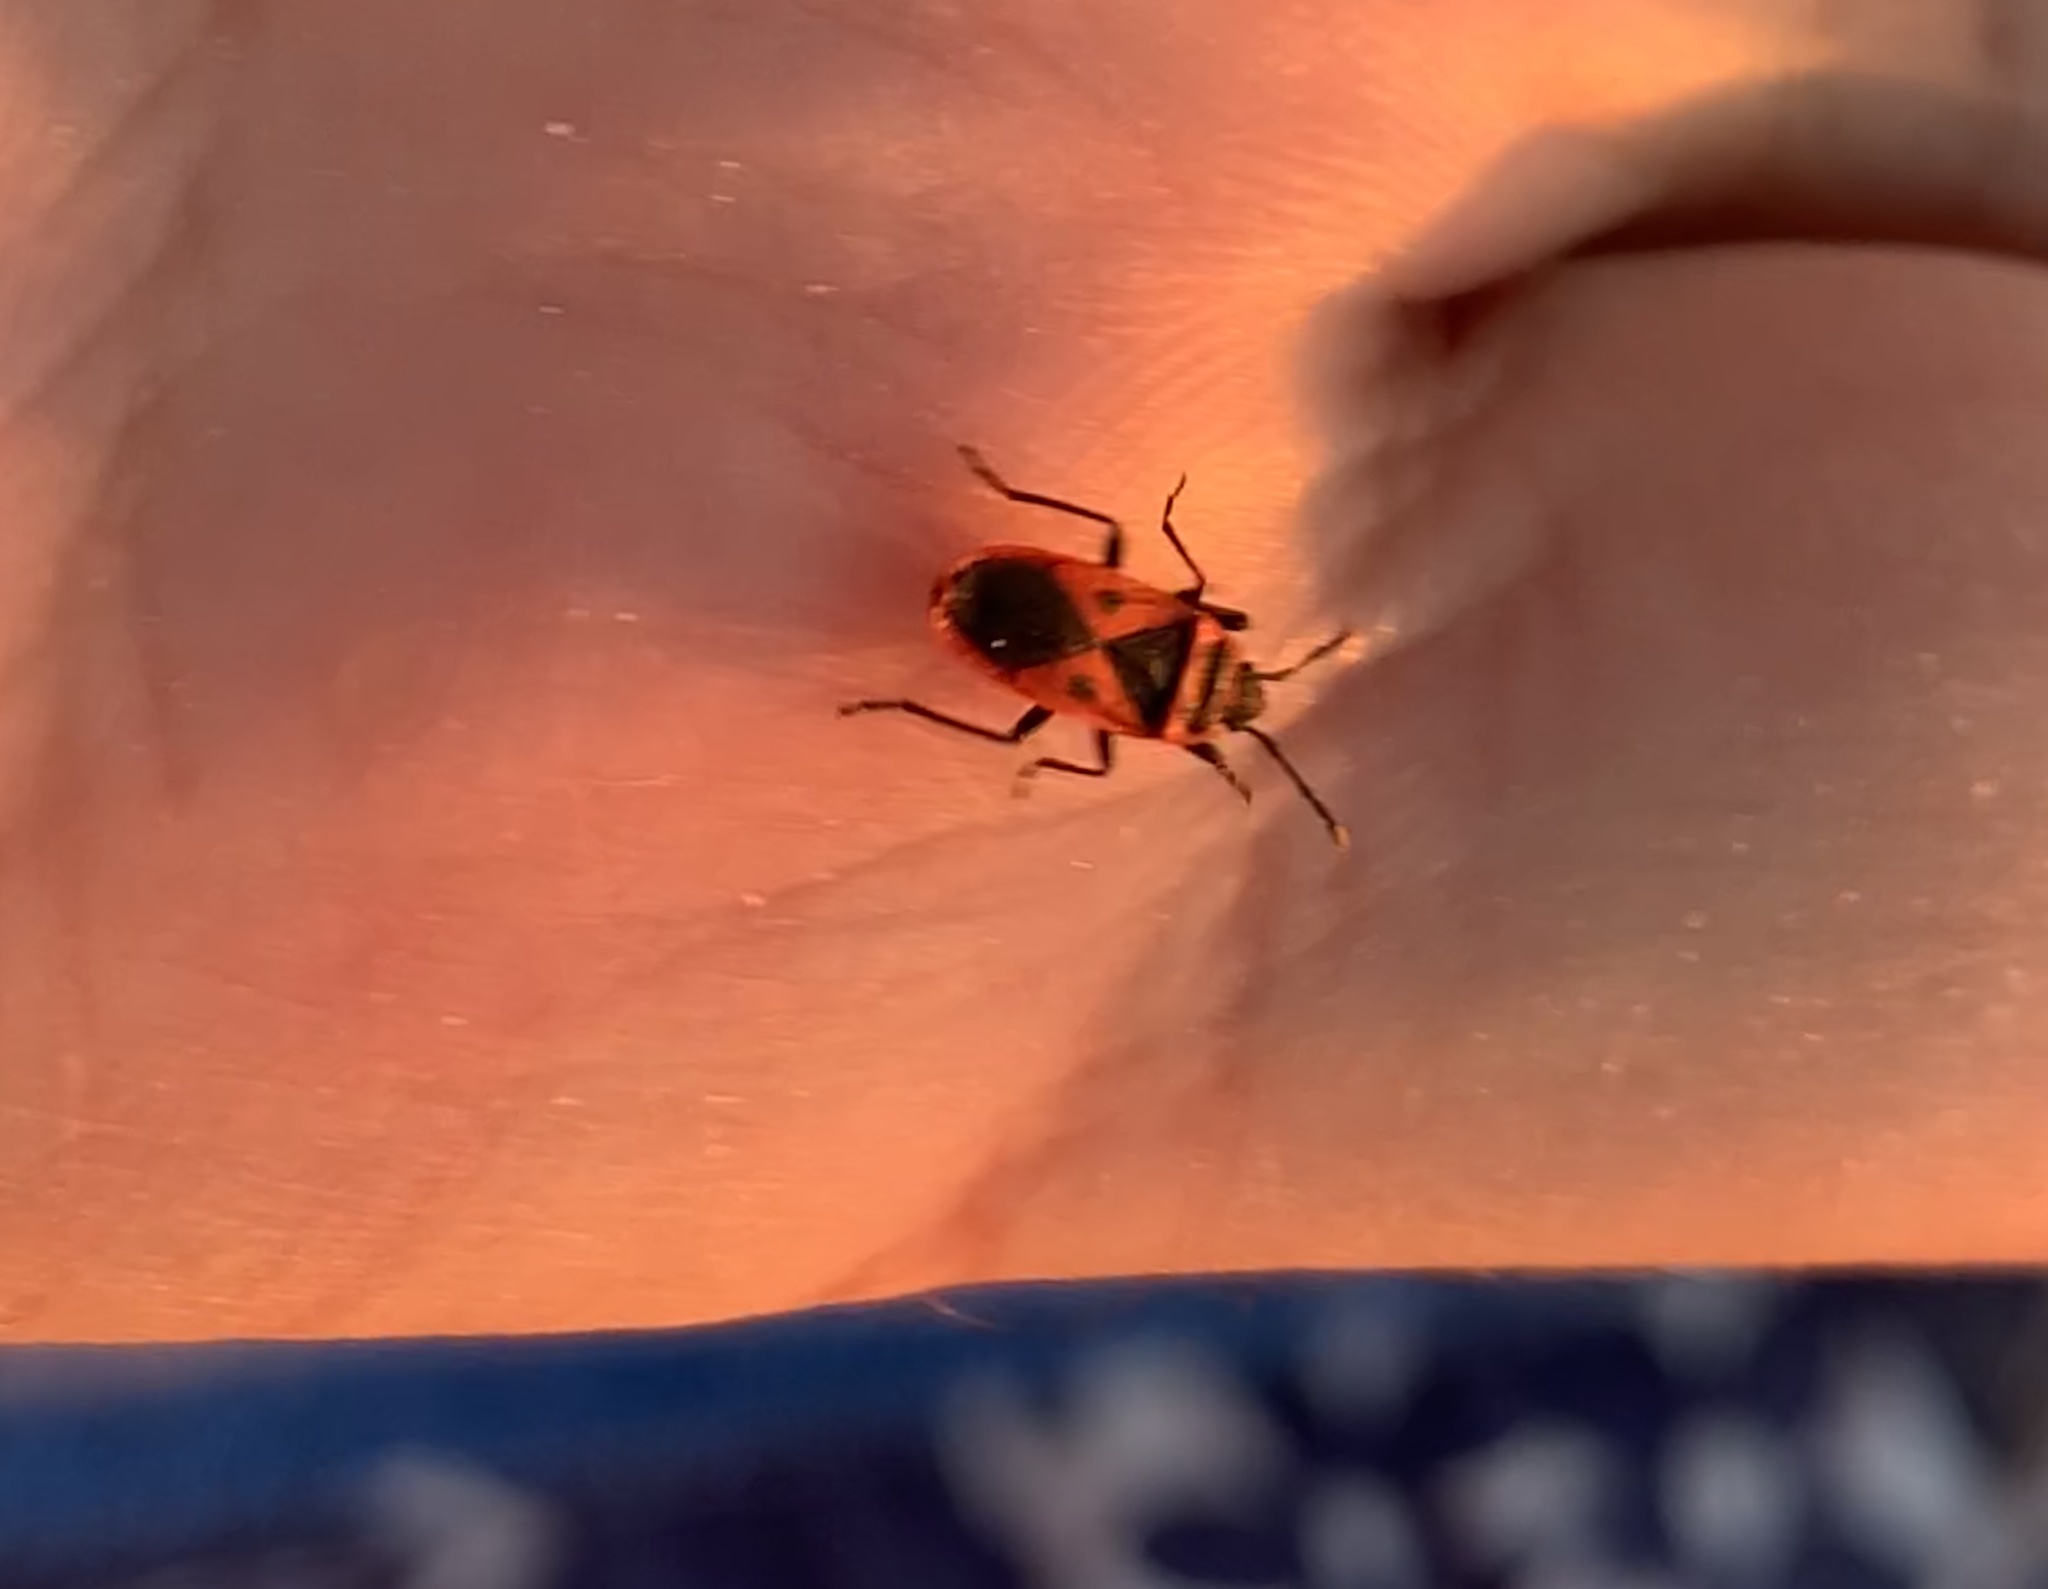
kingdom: Animalia
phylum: Arthropoda
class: Insecta
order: Hemiptera
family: Pyrrhocoridae
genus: Scantius
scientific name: Scantius aegyptius
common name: Red bug
